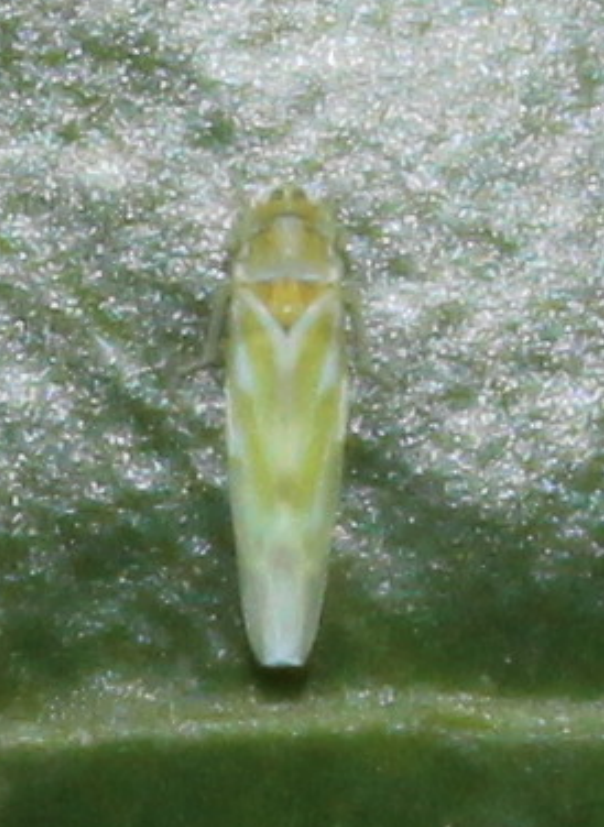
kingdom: Animalia
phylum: Arthropoda
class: Insecta
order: Hemiptera
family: Cicadellidae
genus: Frutioidia
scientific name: Frutioidia bisignata
